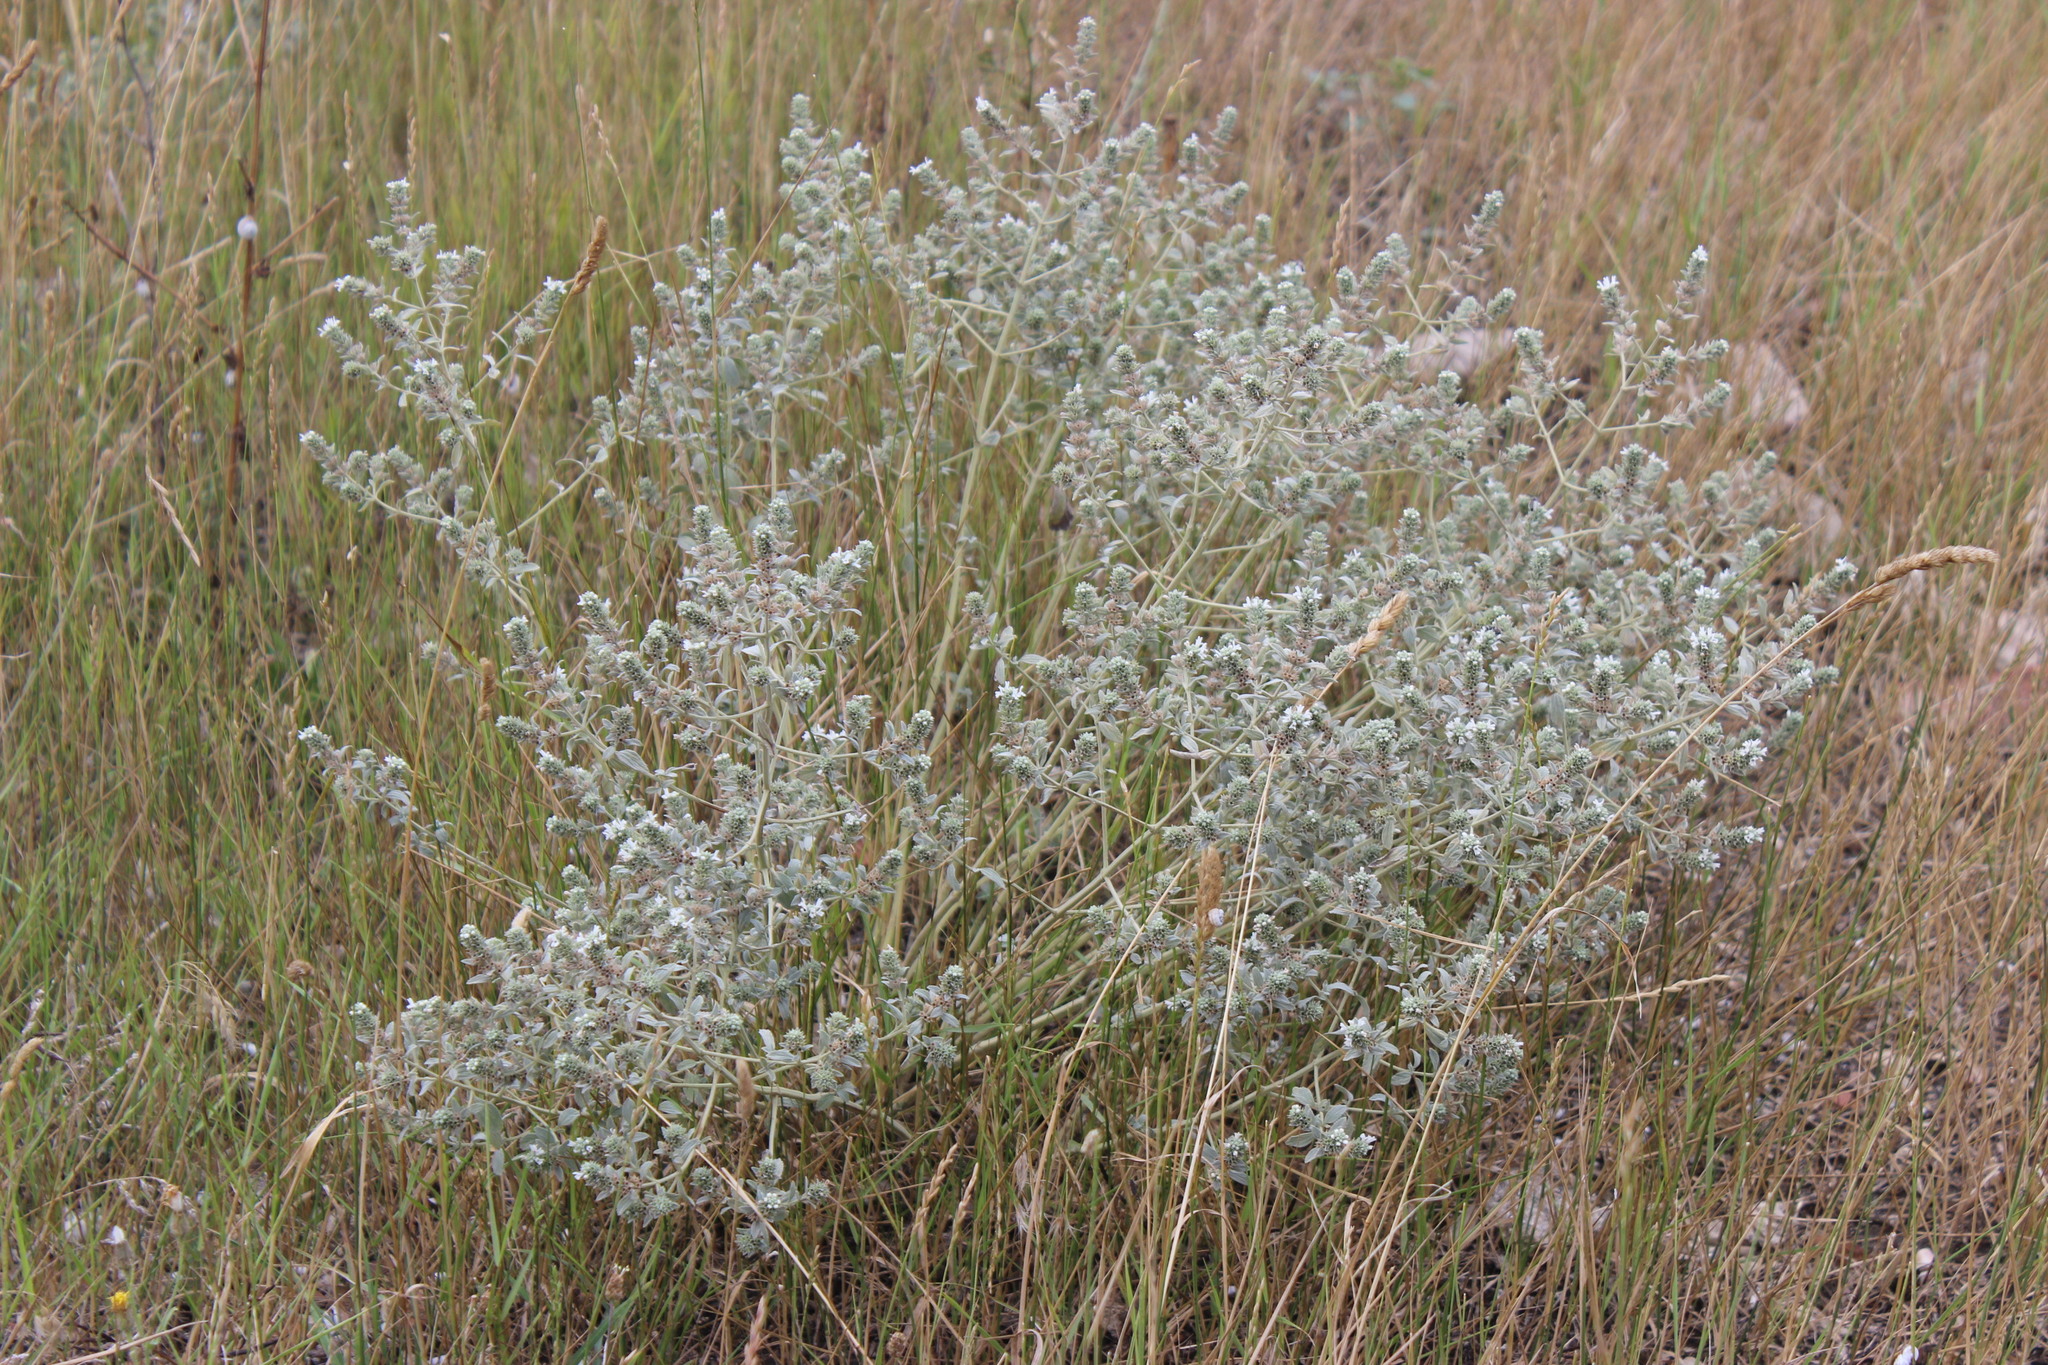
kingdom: Plantae
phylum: Tracheophyta
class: Magnoliopsida
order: Lamiales
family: Lamiaceae
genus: Marrubium
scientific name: Marrubium peregrinum
